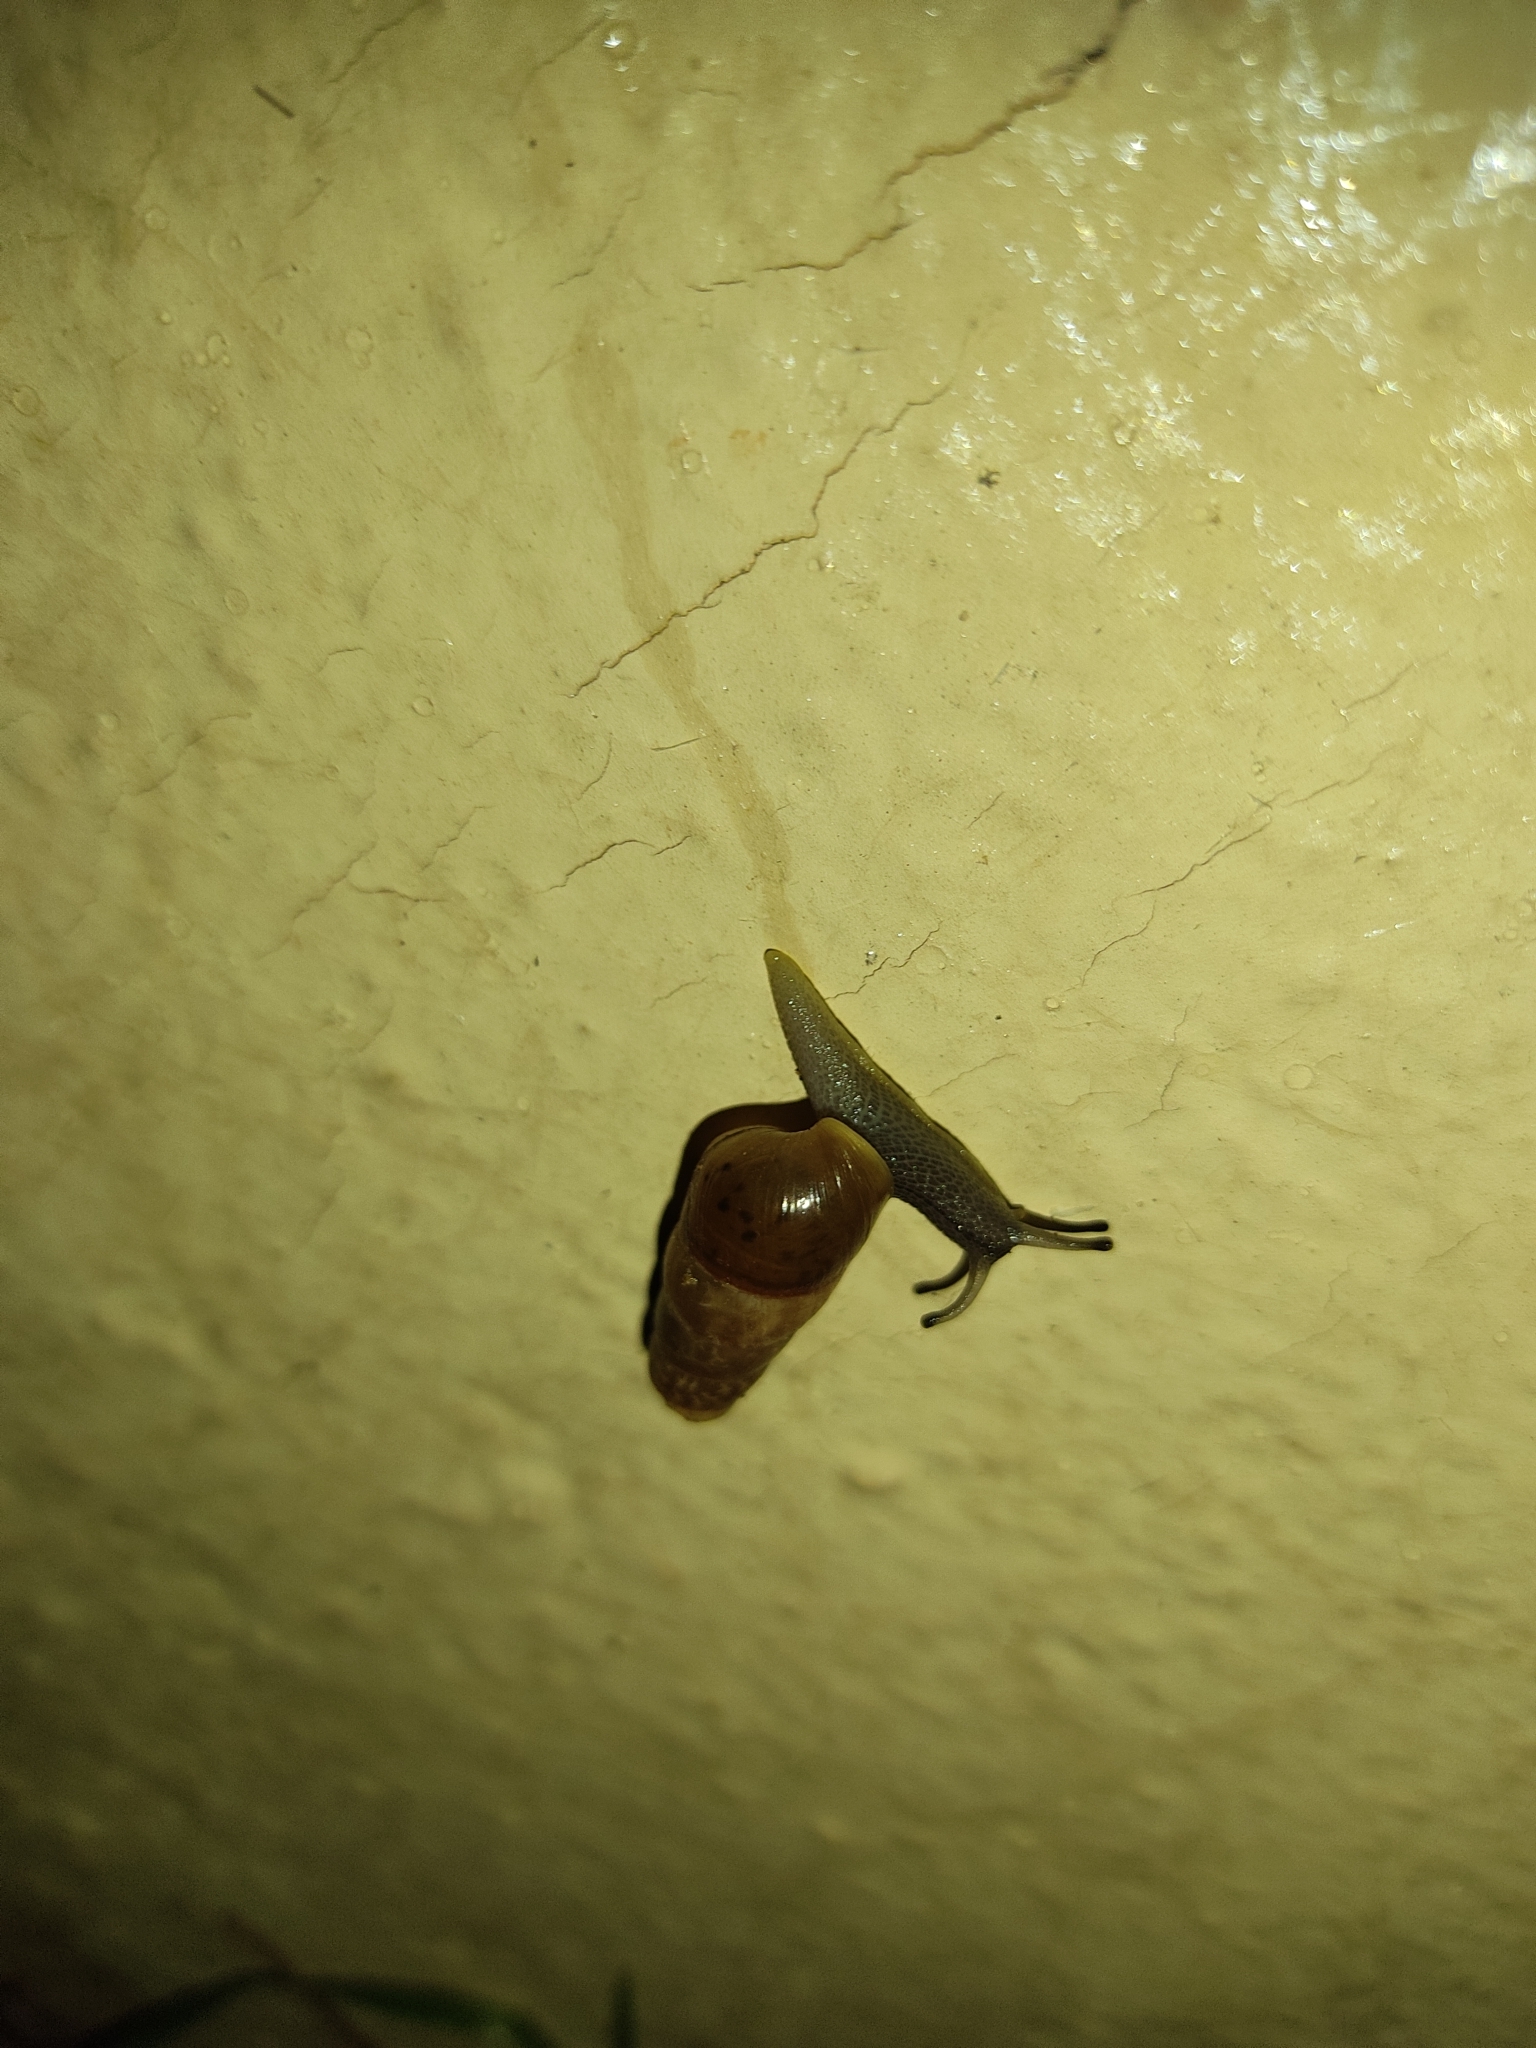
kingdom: Animalia
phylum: Mollusca
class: Gastropoda
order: Stylommatophora
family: Achatinidae
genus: Rumina
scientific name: Rumina decollata
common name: Decollate snail
